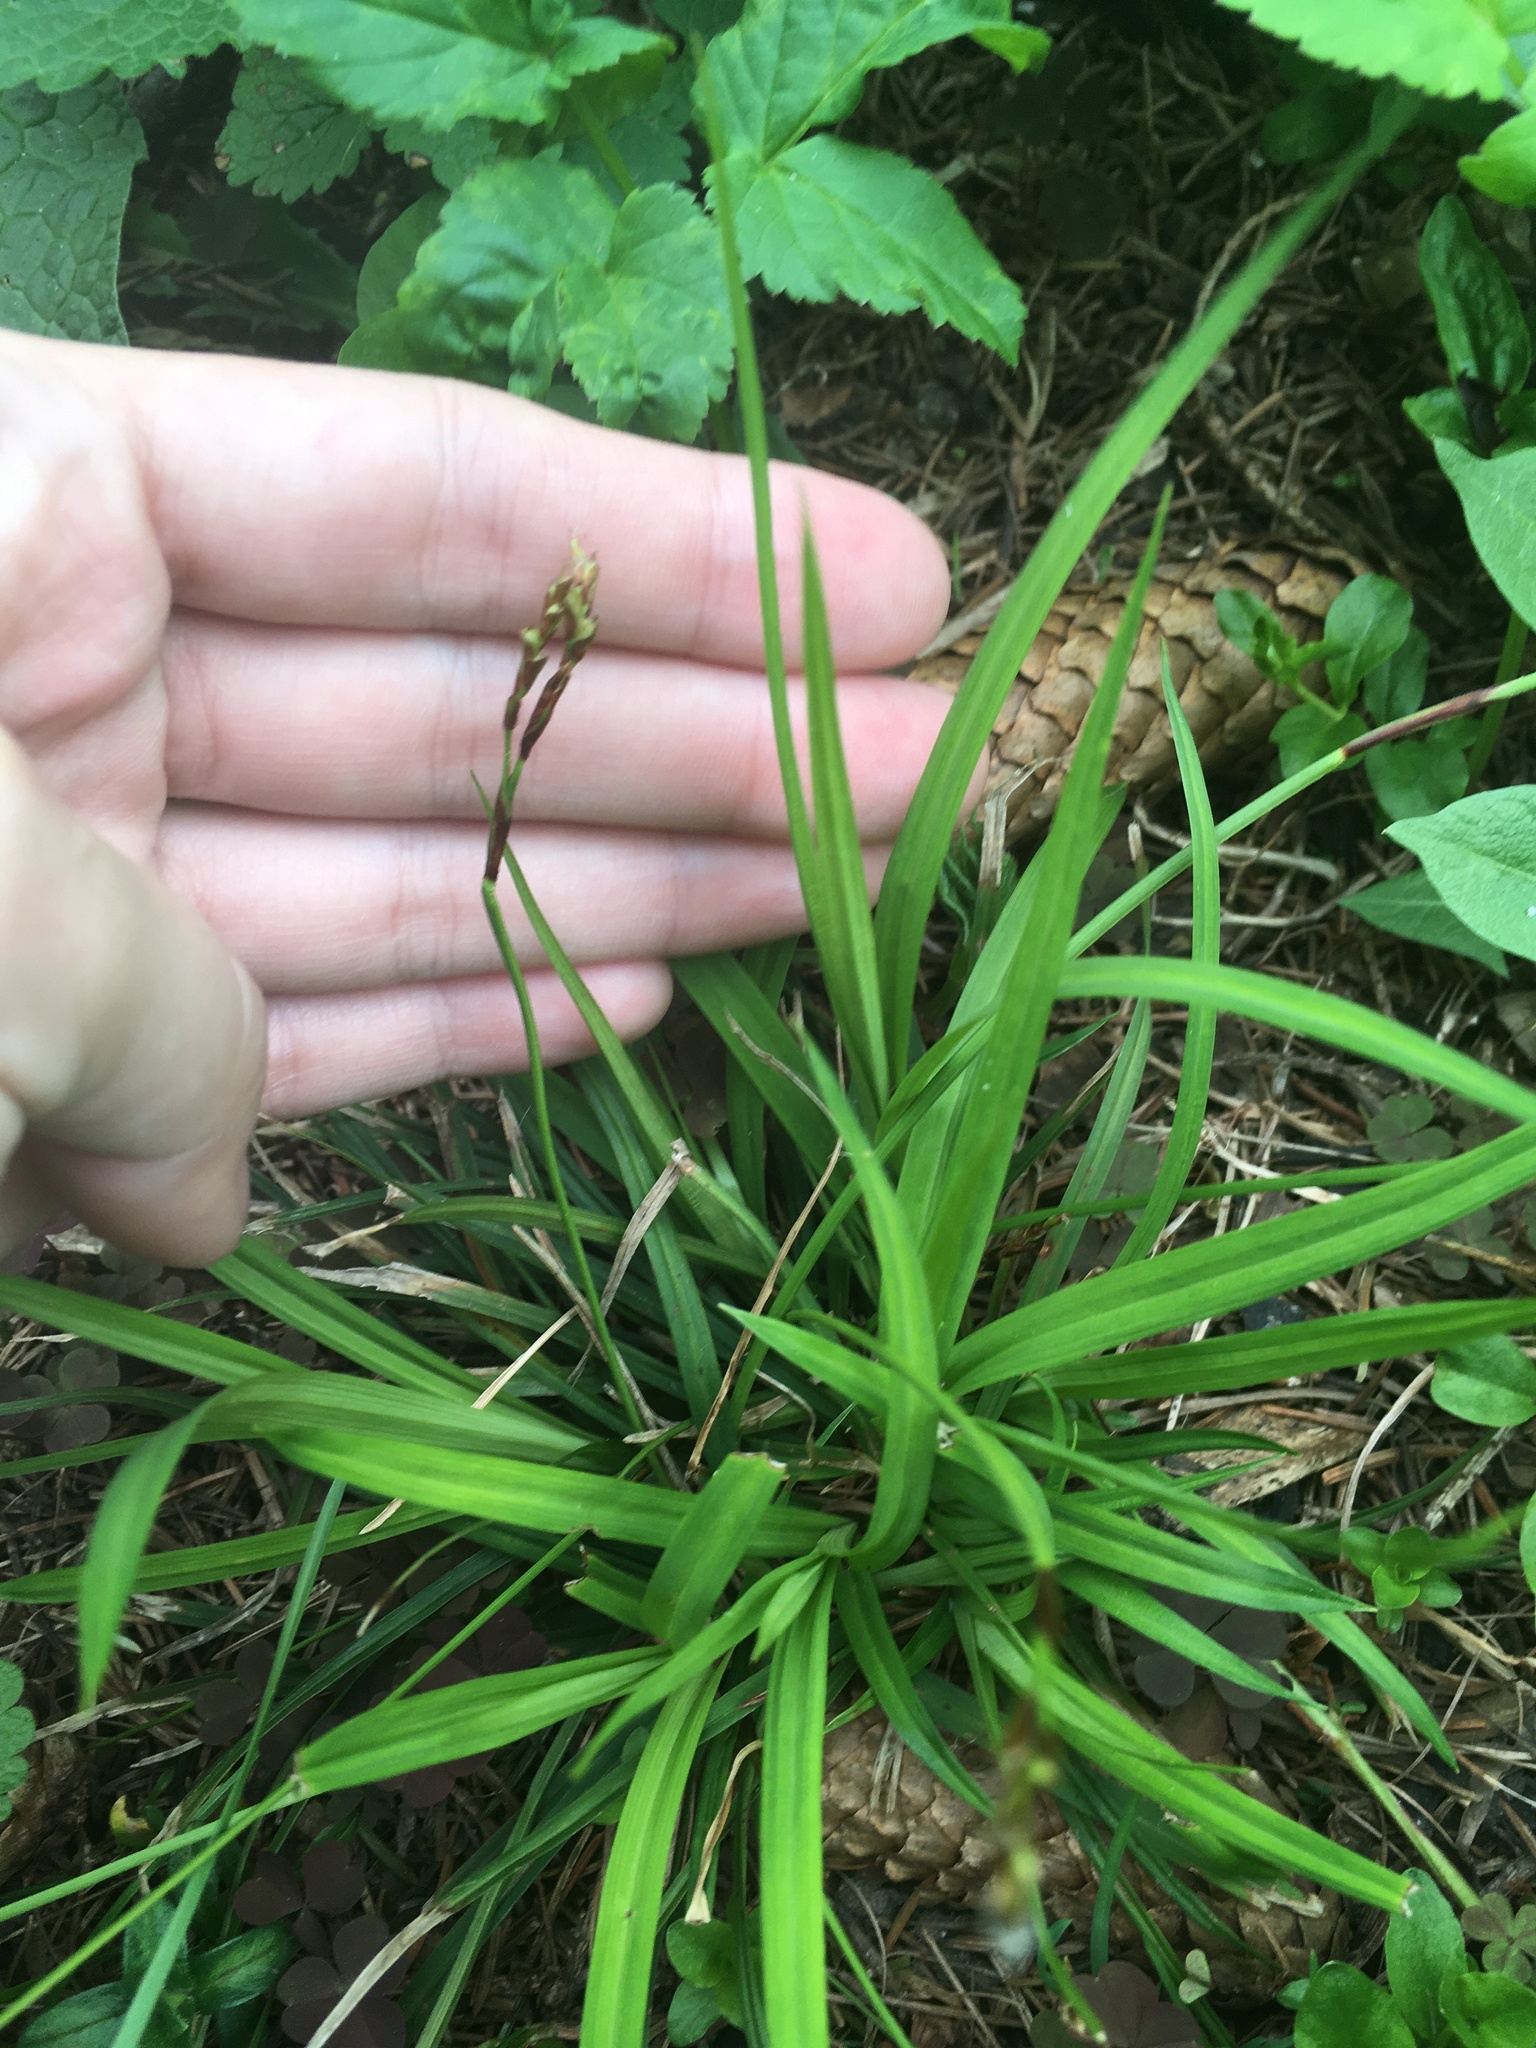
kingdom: Plantae
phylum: Tracheophyta
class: Liliopsida
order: Poales
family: Cyperaceae
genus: Carex
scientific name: Carex digitata
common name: Fingered sedge
